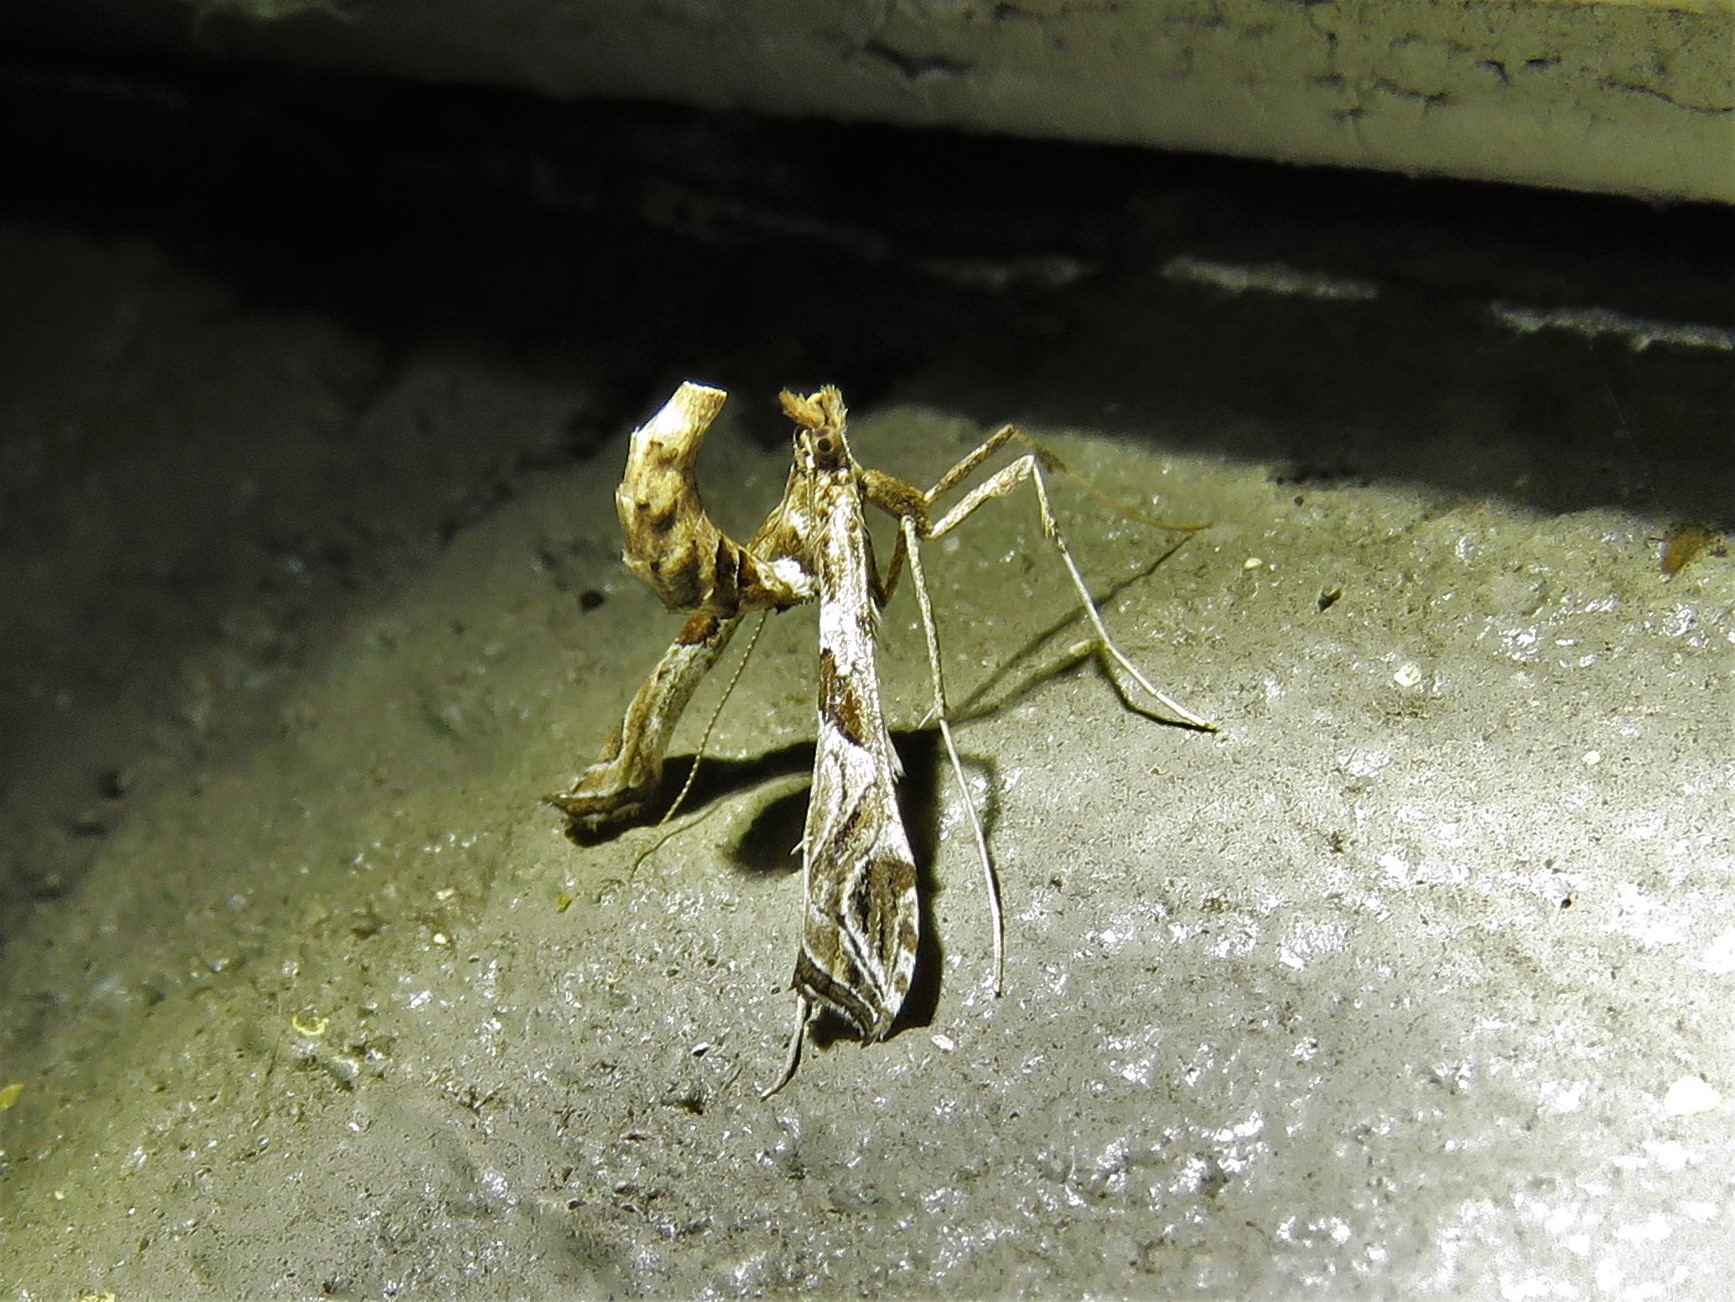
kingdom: Animalia
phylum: Arthropoda
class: Insecta
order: Lepidoptera
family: Crambidae
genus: Lineodes
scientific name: Lineodes interrupta
